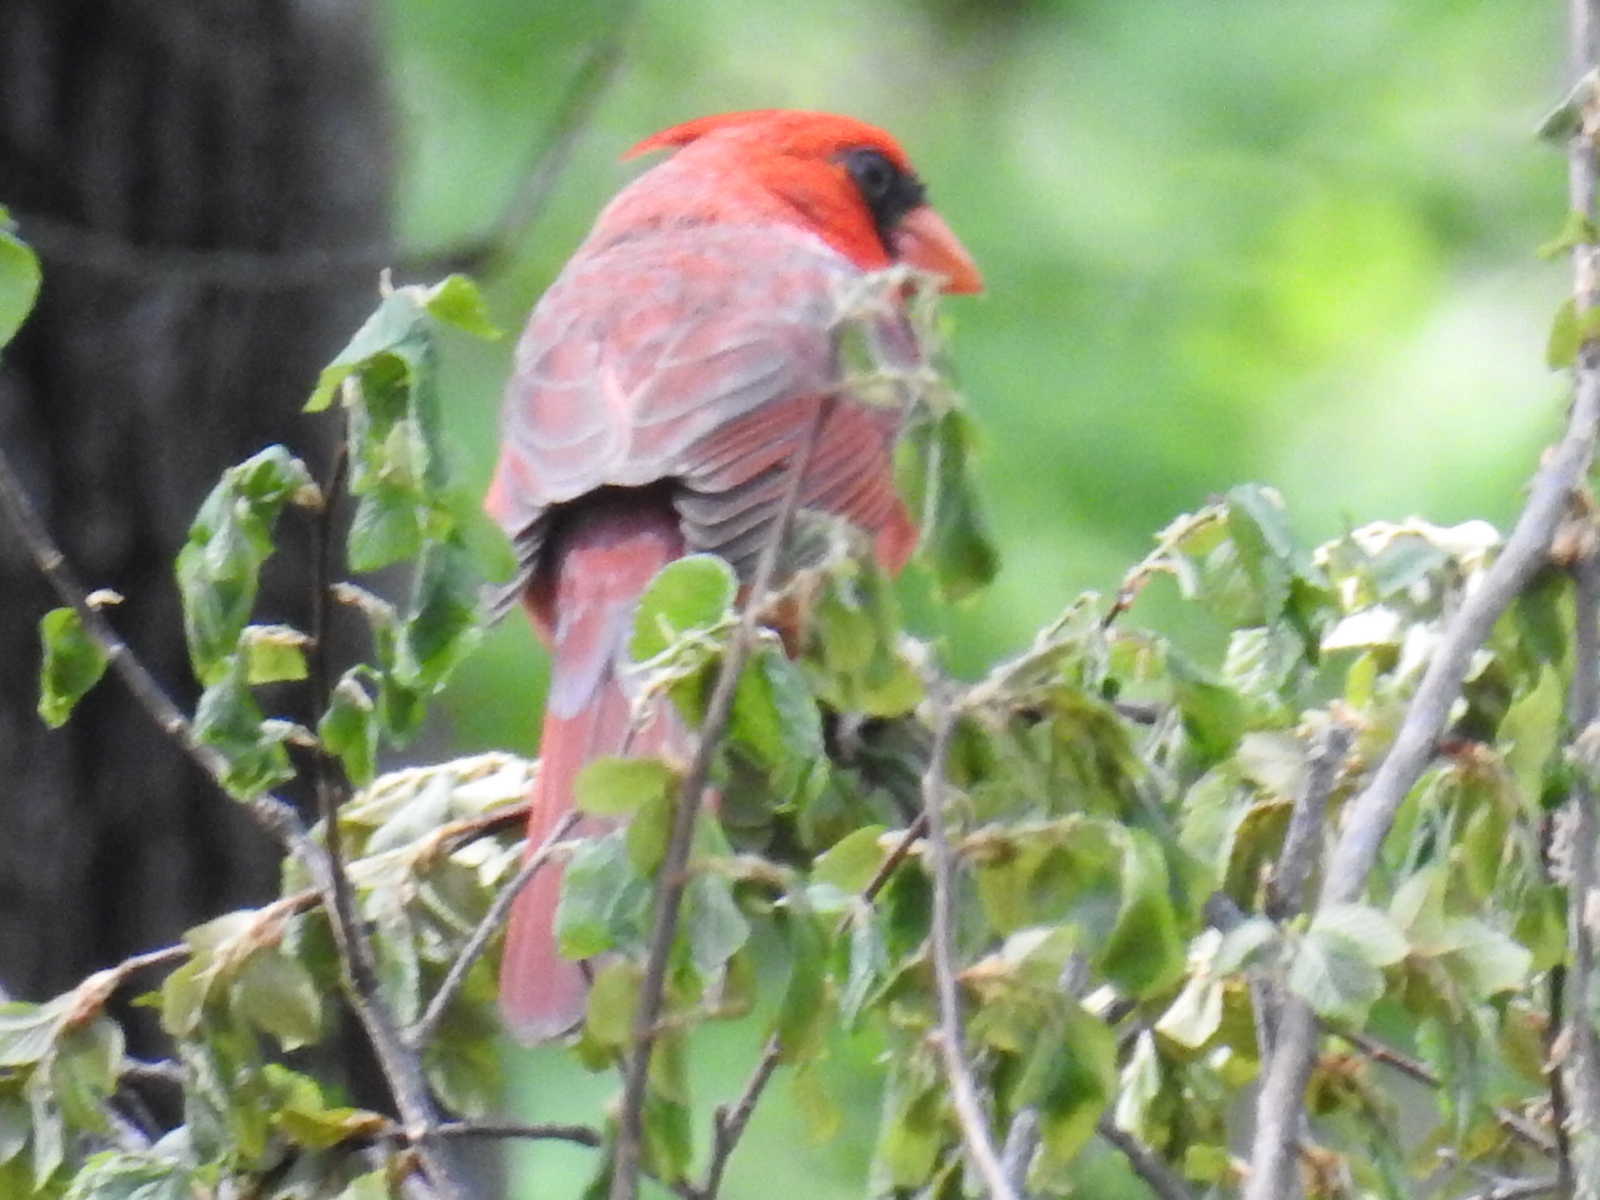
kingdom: Animalia
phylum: Chordata
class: Aves
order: Passeriformes
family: Cardinalidae
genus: Cardinalis
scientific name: Cardinalis cardinalis
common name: Northern cardinal
